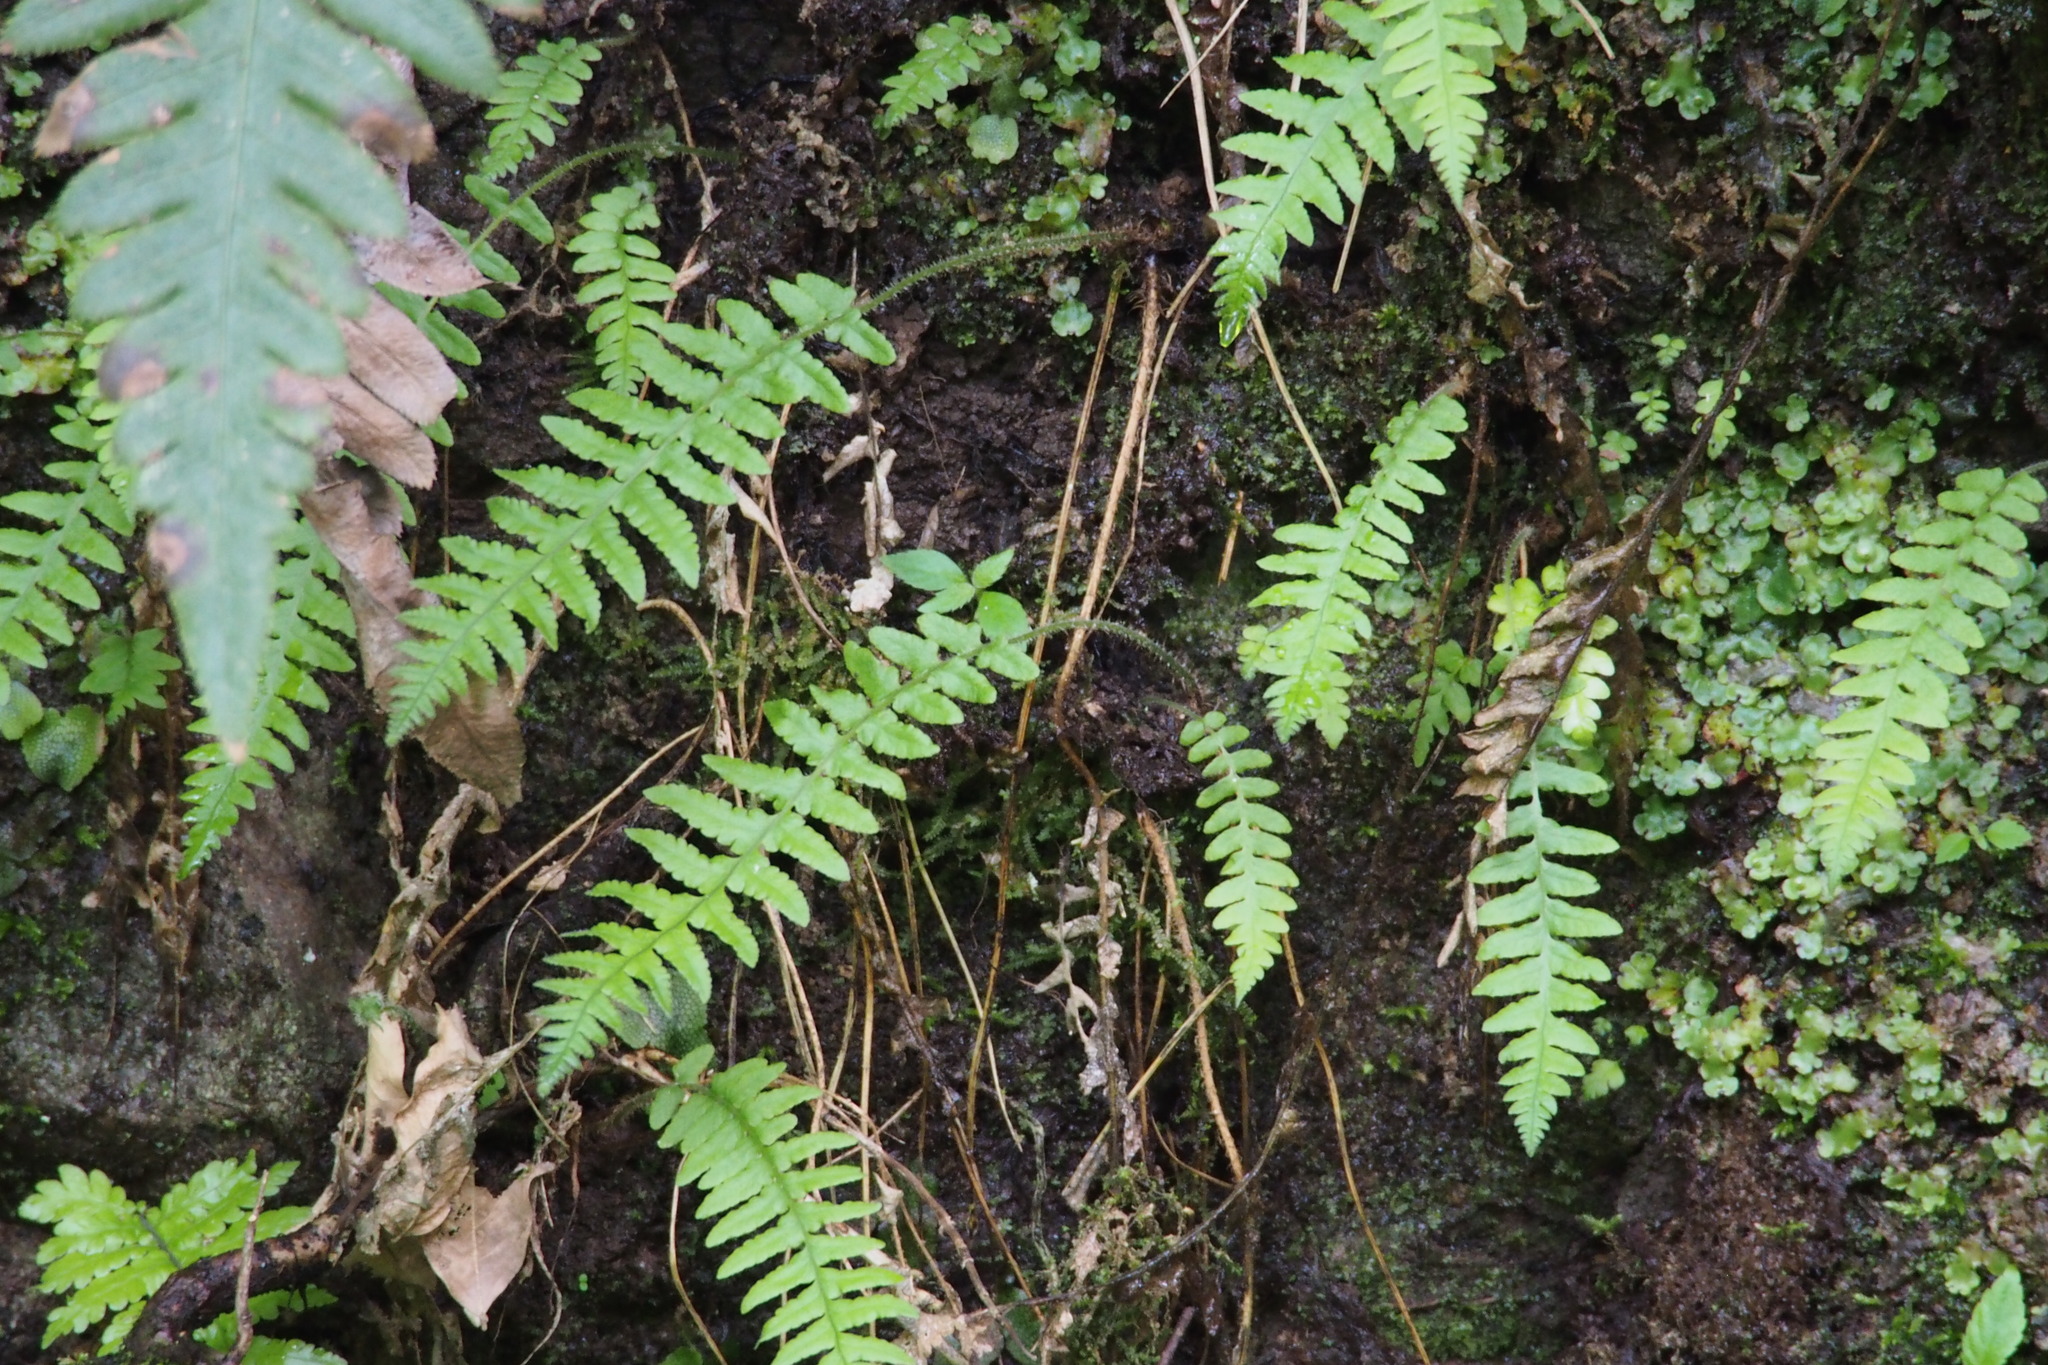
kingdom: Plantae
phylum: Tracheophyta
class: Polypodiopsida
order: Polypodiales
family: Thelypteridaceae
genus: Phegopteris
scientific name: Phegopteris decursive-pinnata
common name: Japanese beech fern
